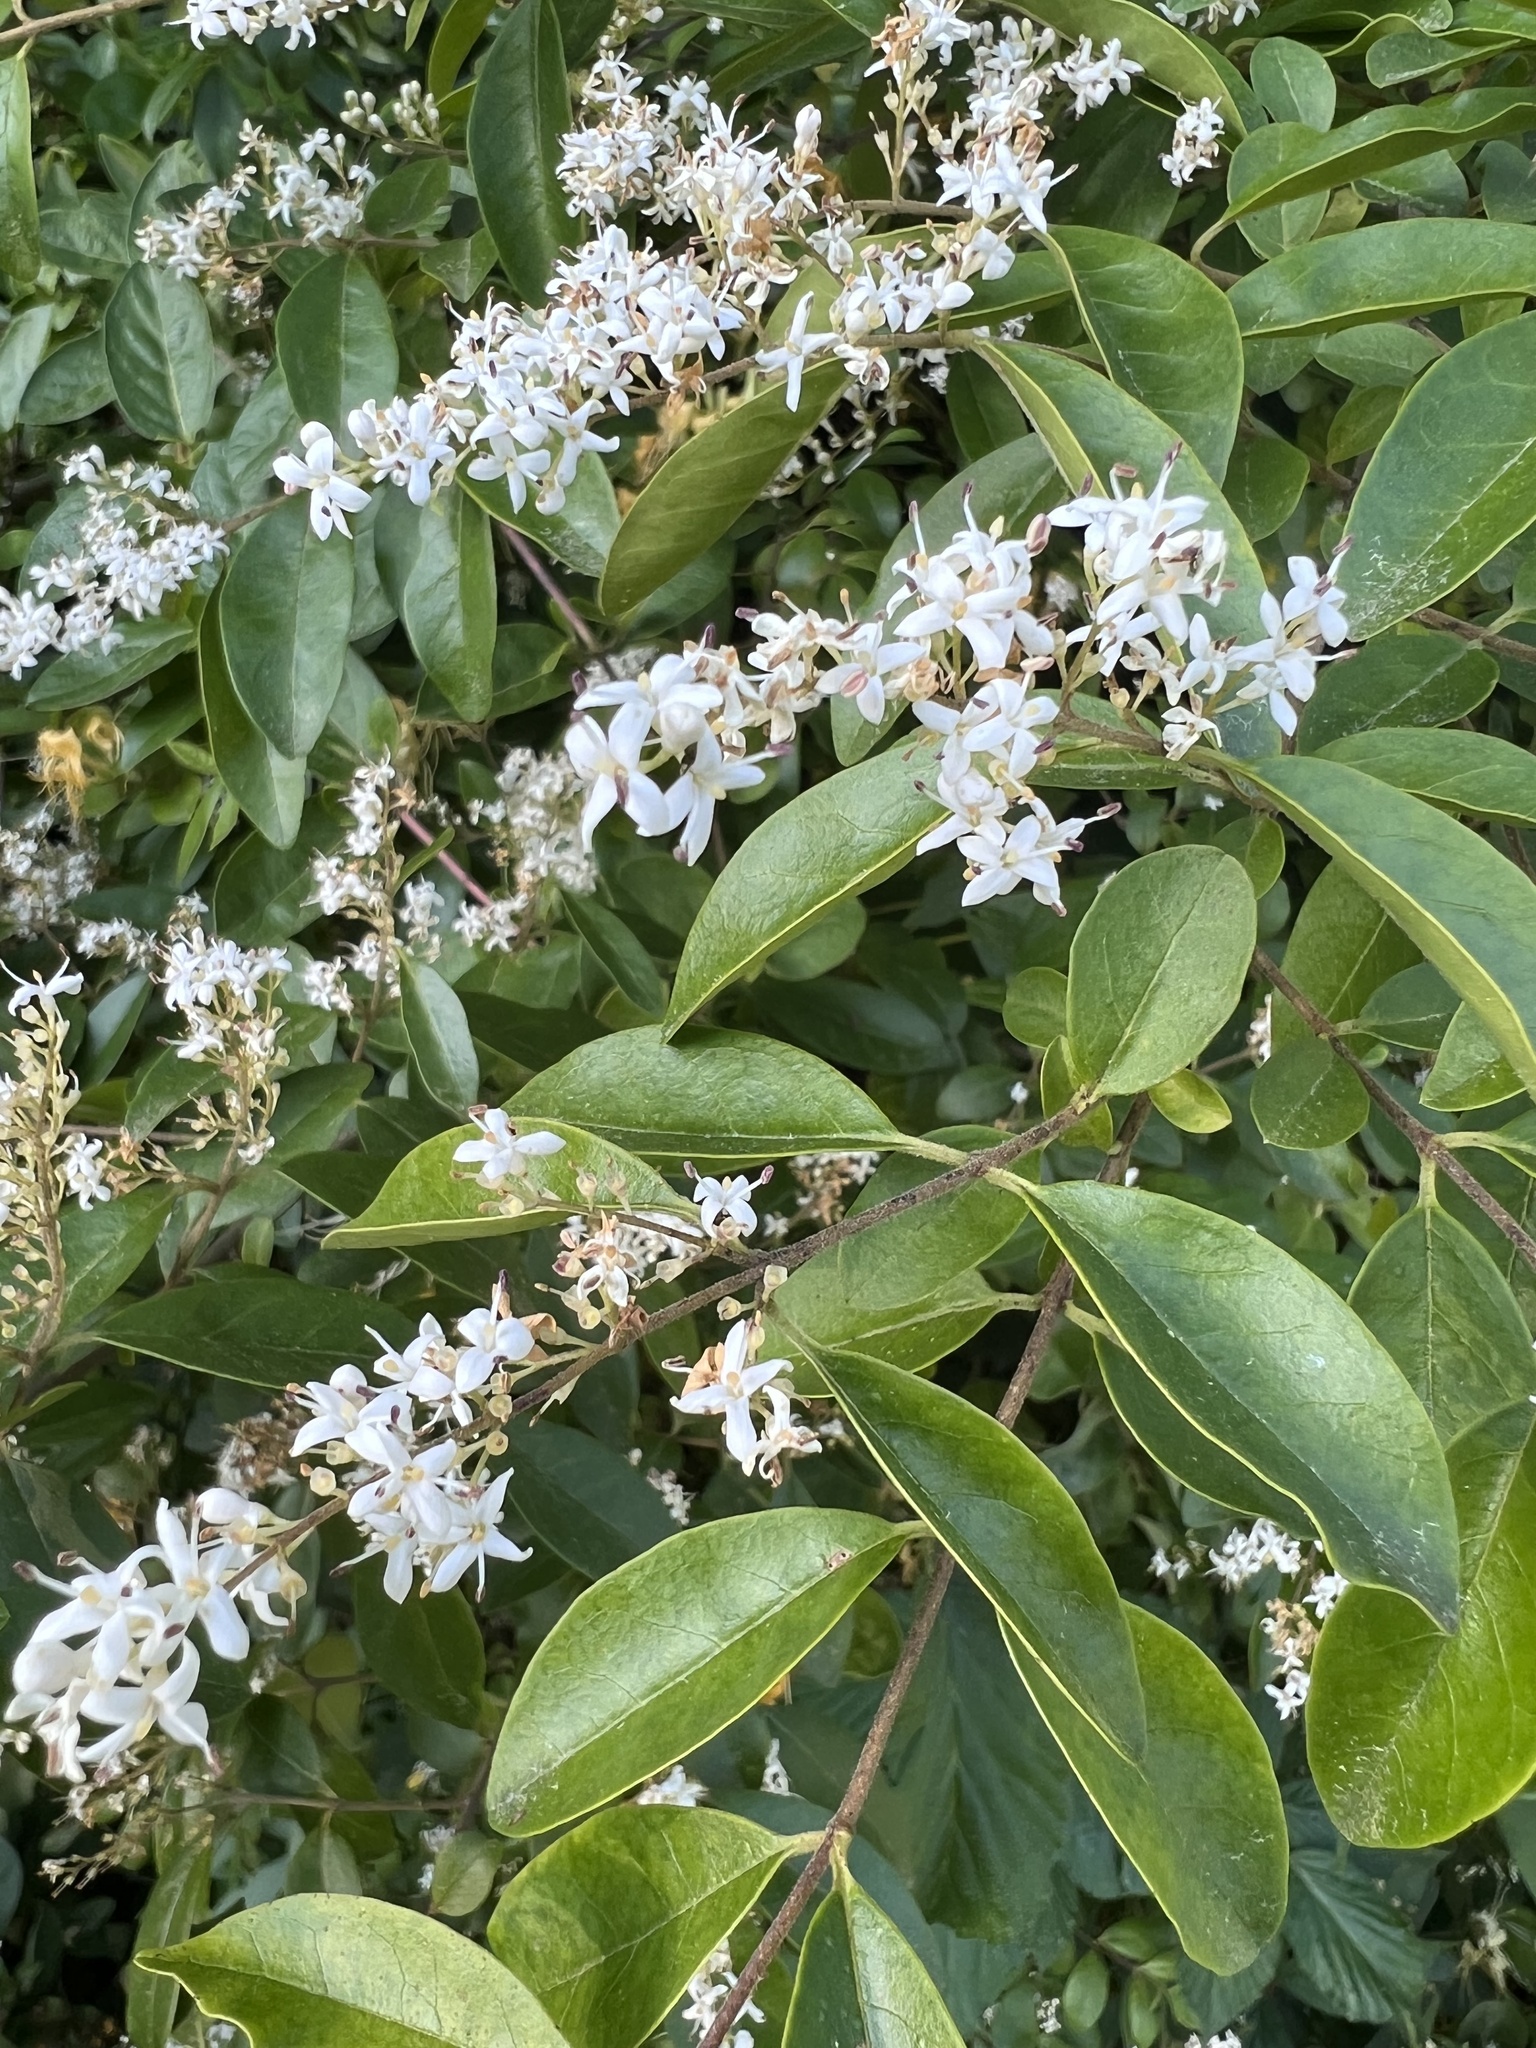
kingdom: Plantae
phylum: Tracheophyta
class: Magnoliopsida
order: Lamiales
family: Oleaceae
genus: Ligustrum
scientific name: Ligustrum sinense
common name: Chinese privet
